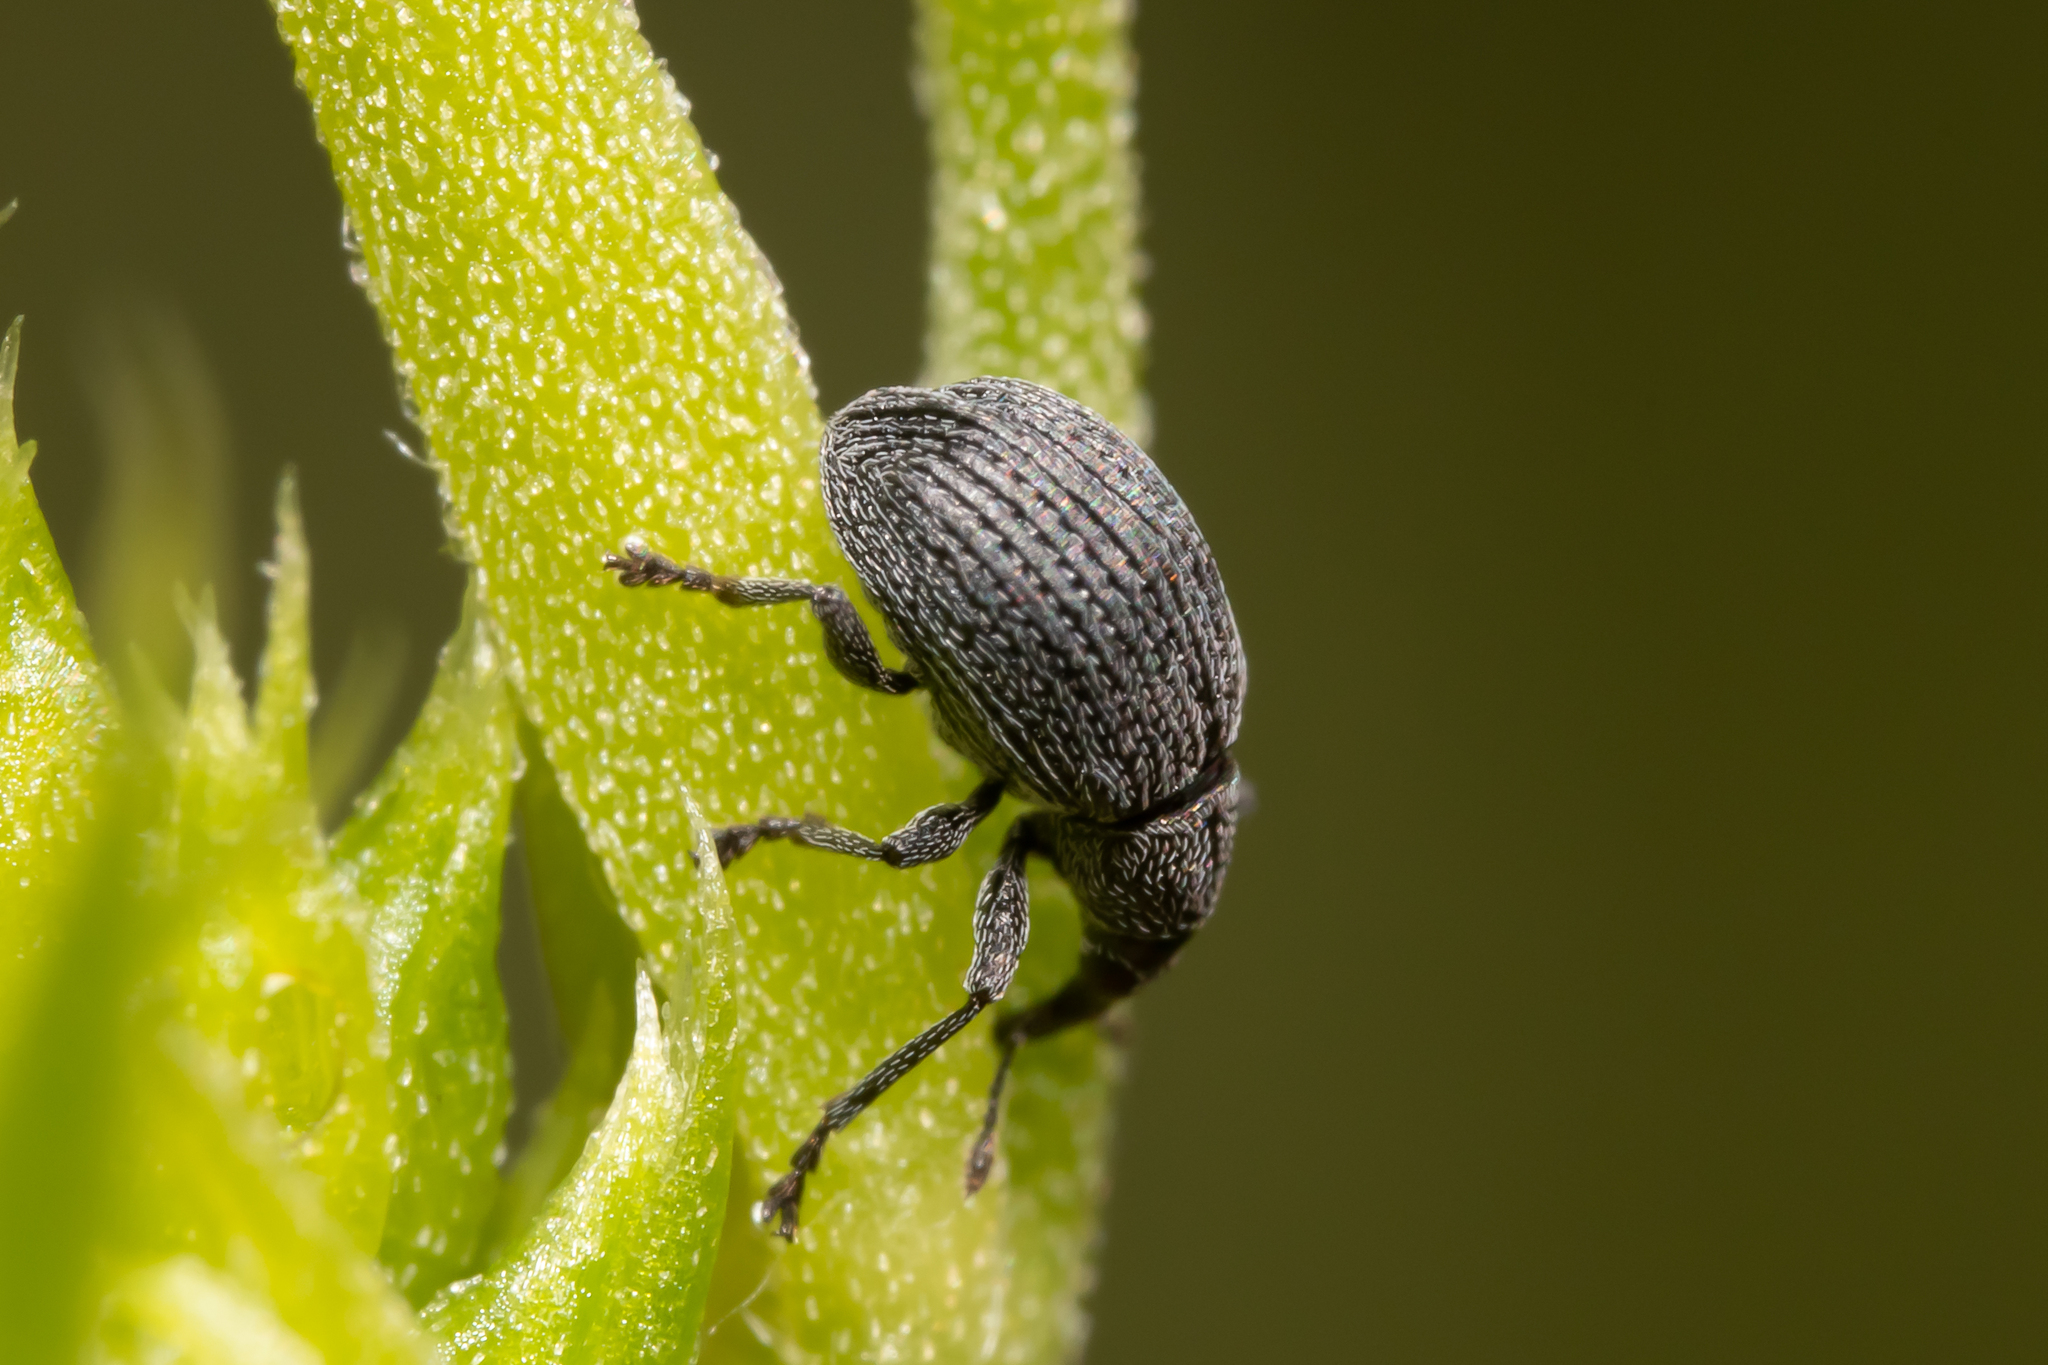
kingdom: Animalia
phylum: Arthropoda
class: Insecta
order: Coleoptera
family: Brentidae
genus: Betulapion
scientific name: Betulapion simile
